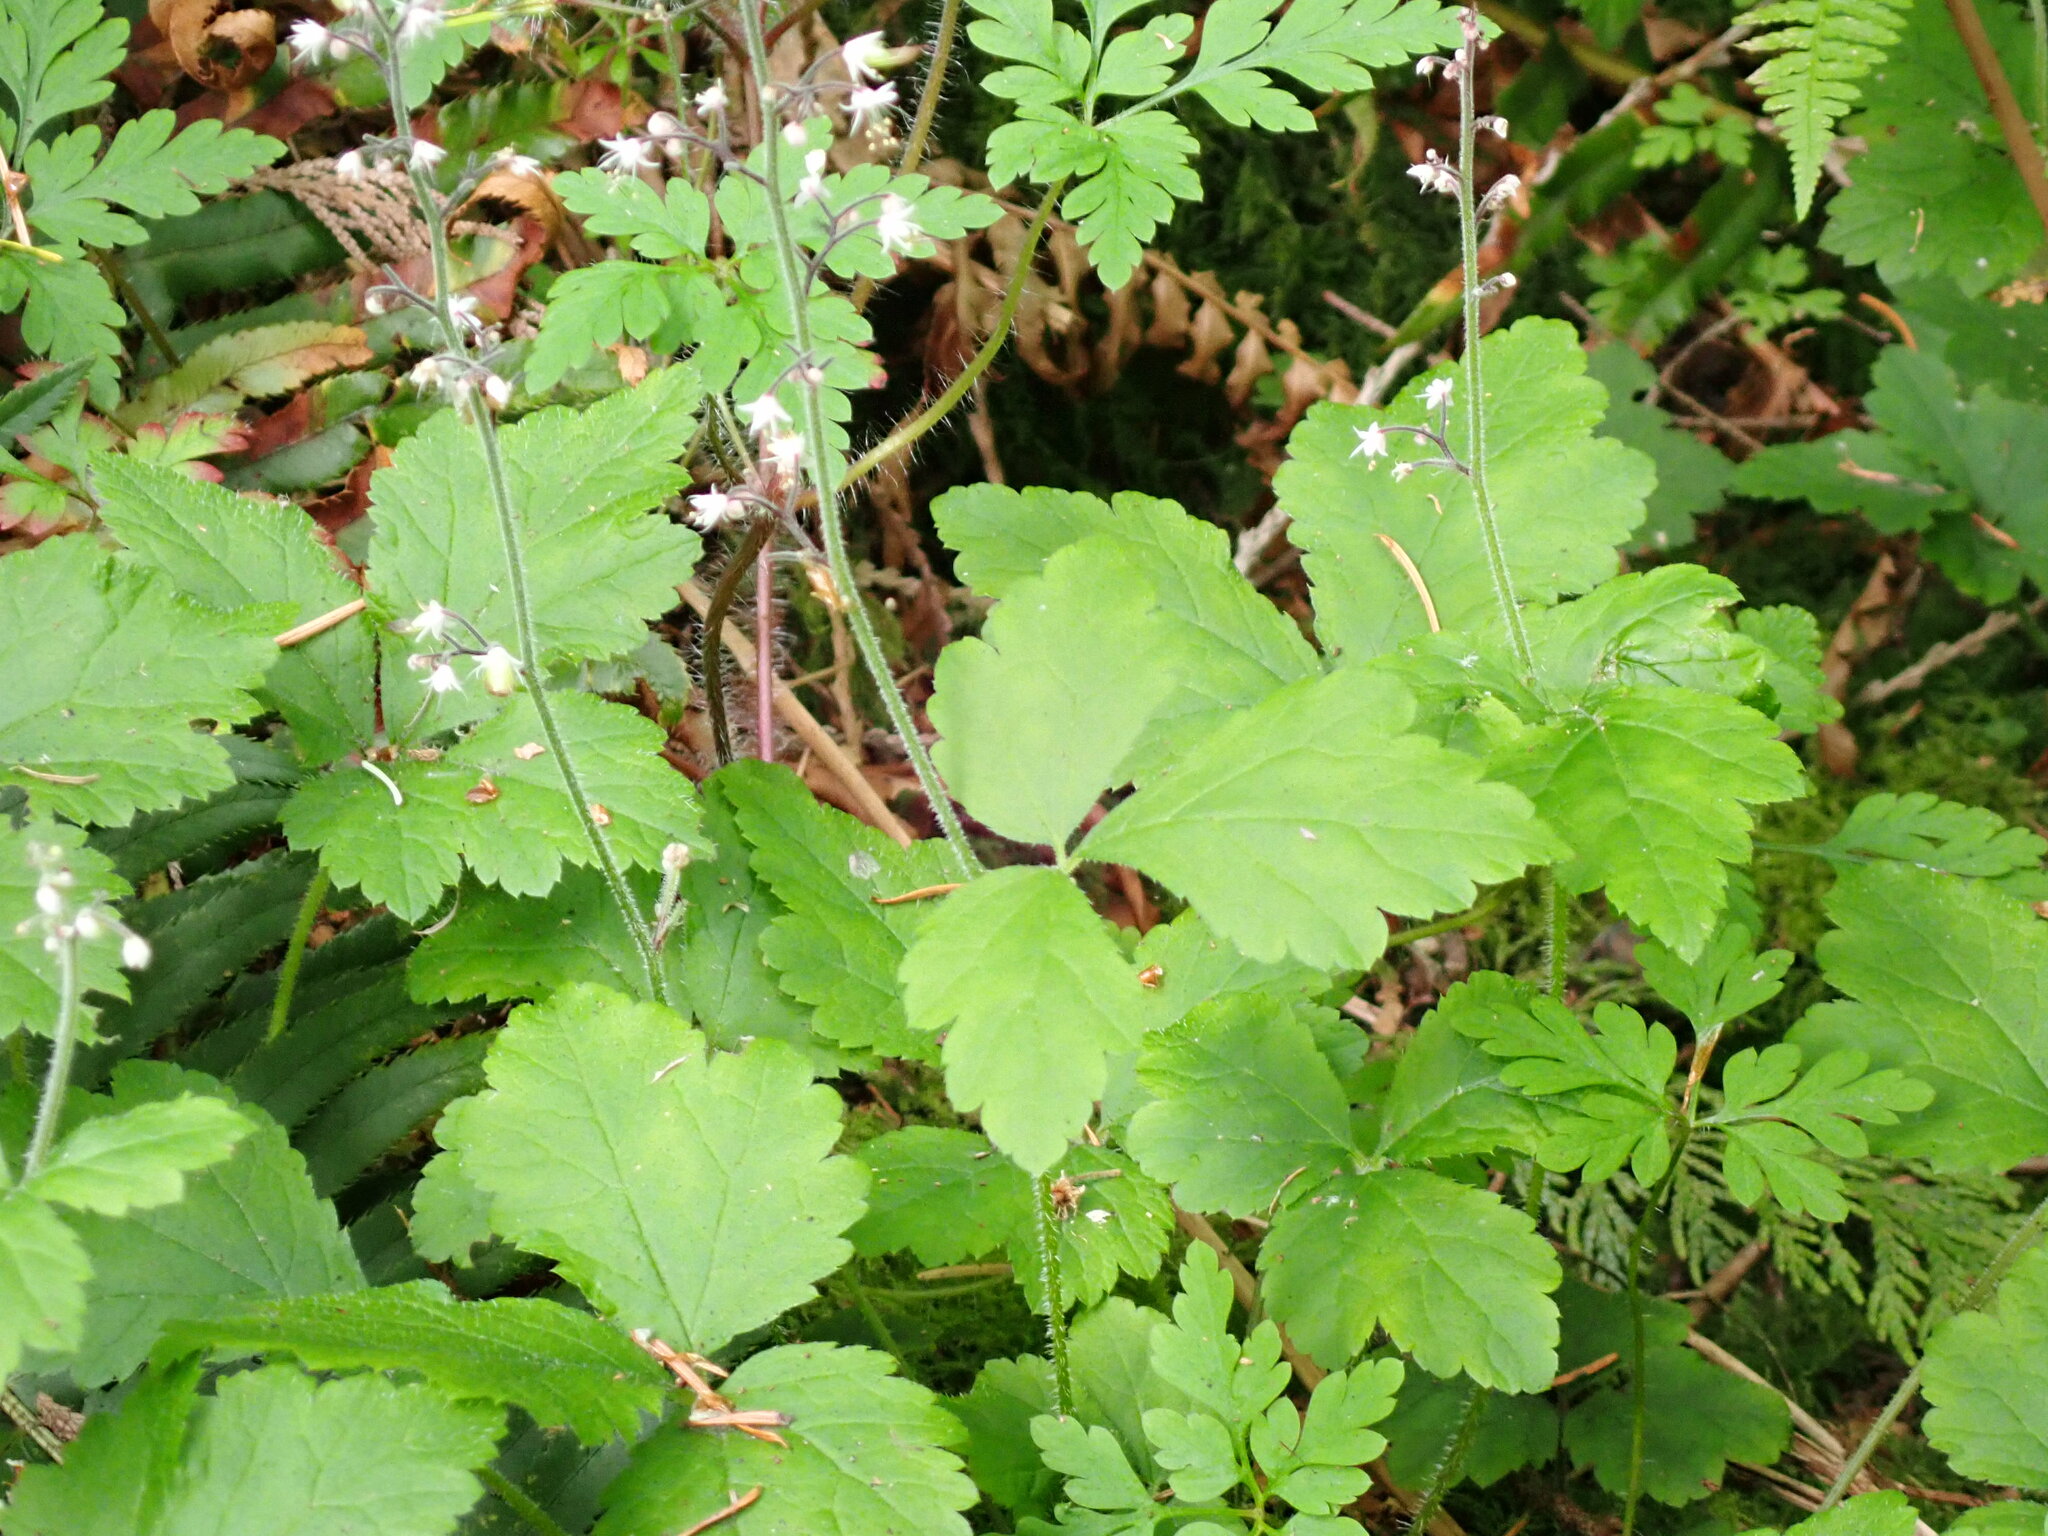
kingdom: Plantae
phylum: Tracheophyta
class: Magnoliopsida
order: Saxifragales
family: Saxifragaceae
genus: Tiarella
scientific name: Tiarella trifoliata
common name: Sugar-scoop
